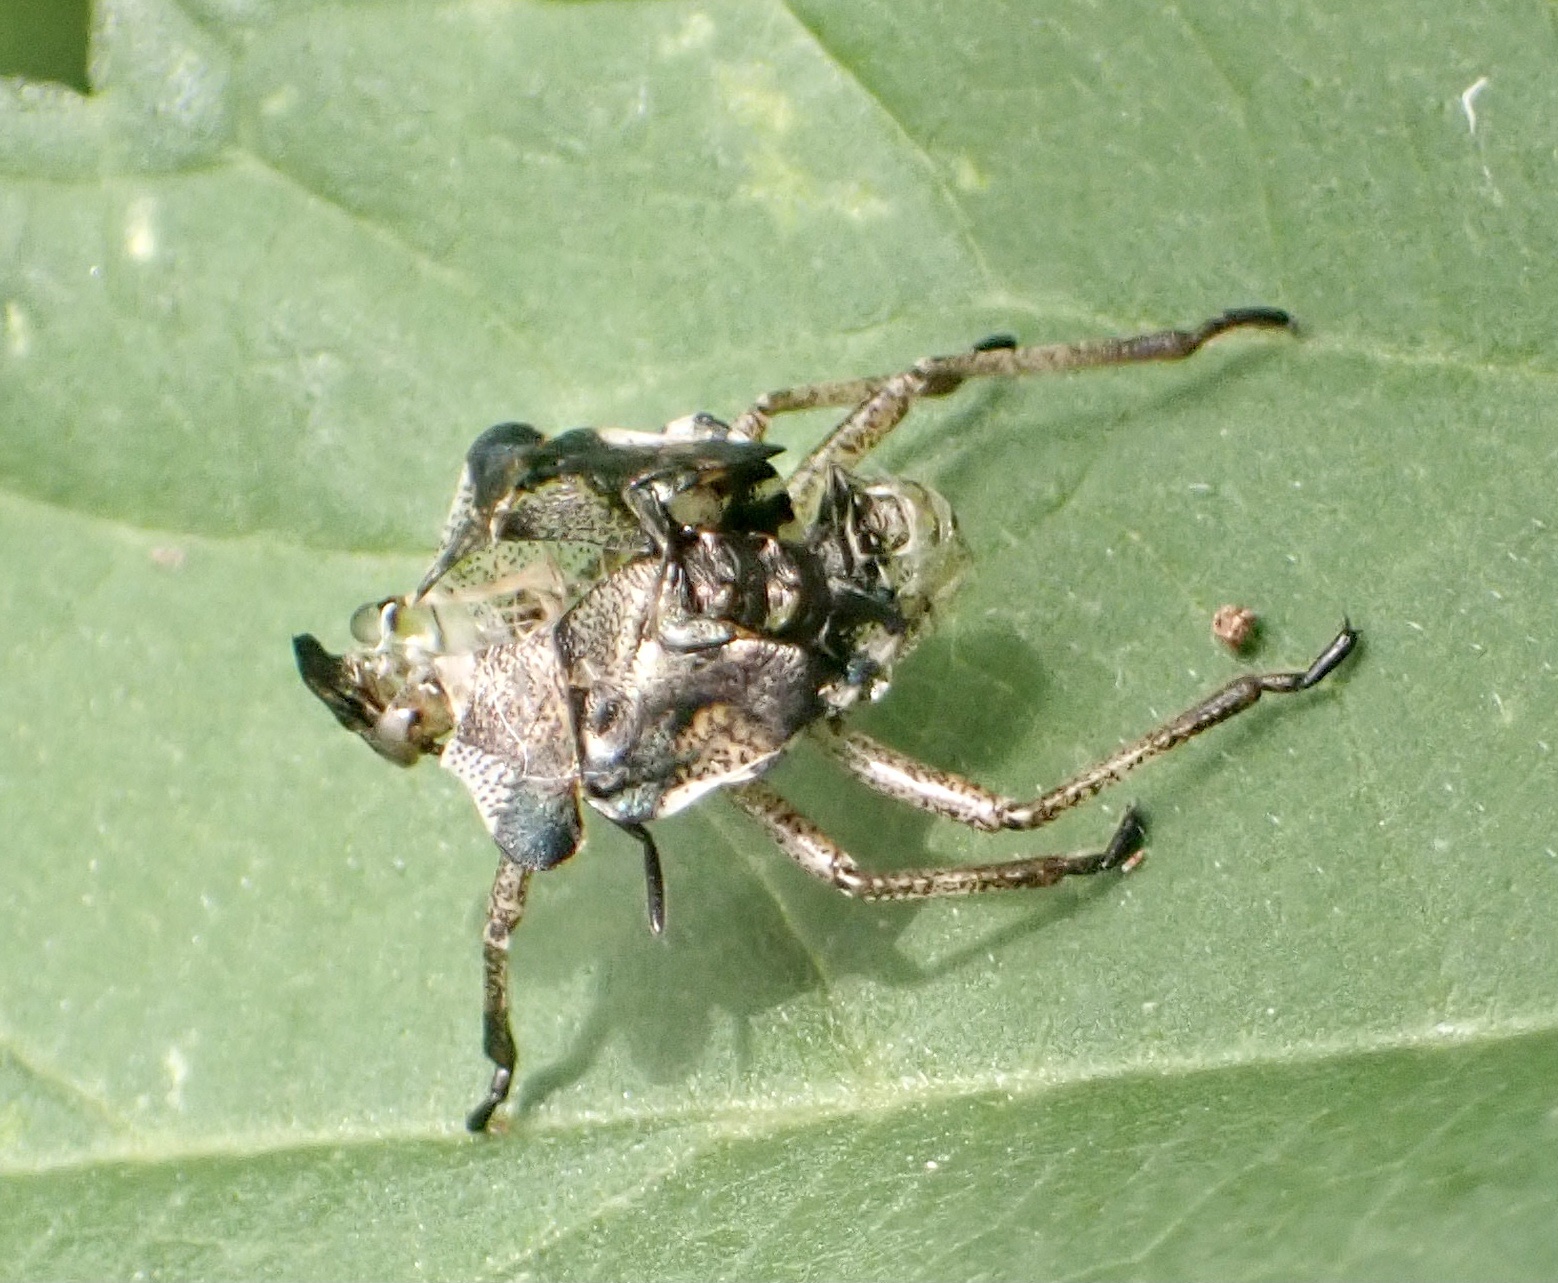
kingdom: Animalia
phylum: Arthropoda
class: Insecta
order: Hemiptera
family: Pentatomidae
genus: Pentatoma
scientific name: Pentatoma rufipes
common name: Forest bug
